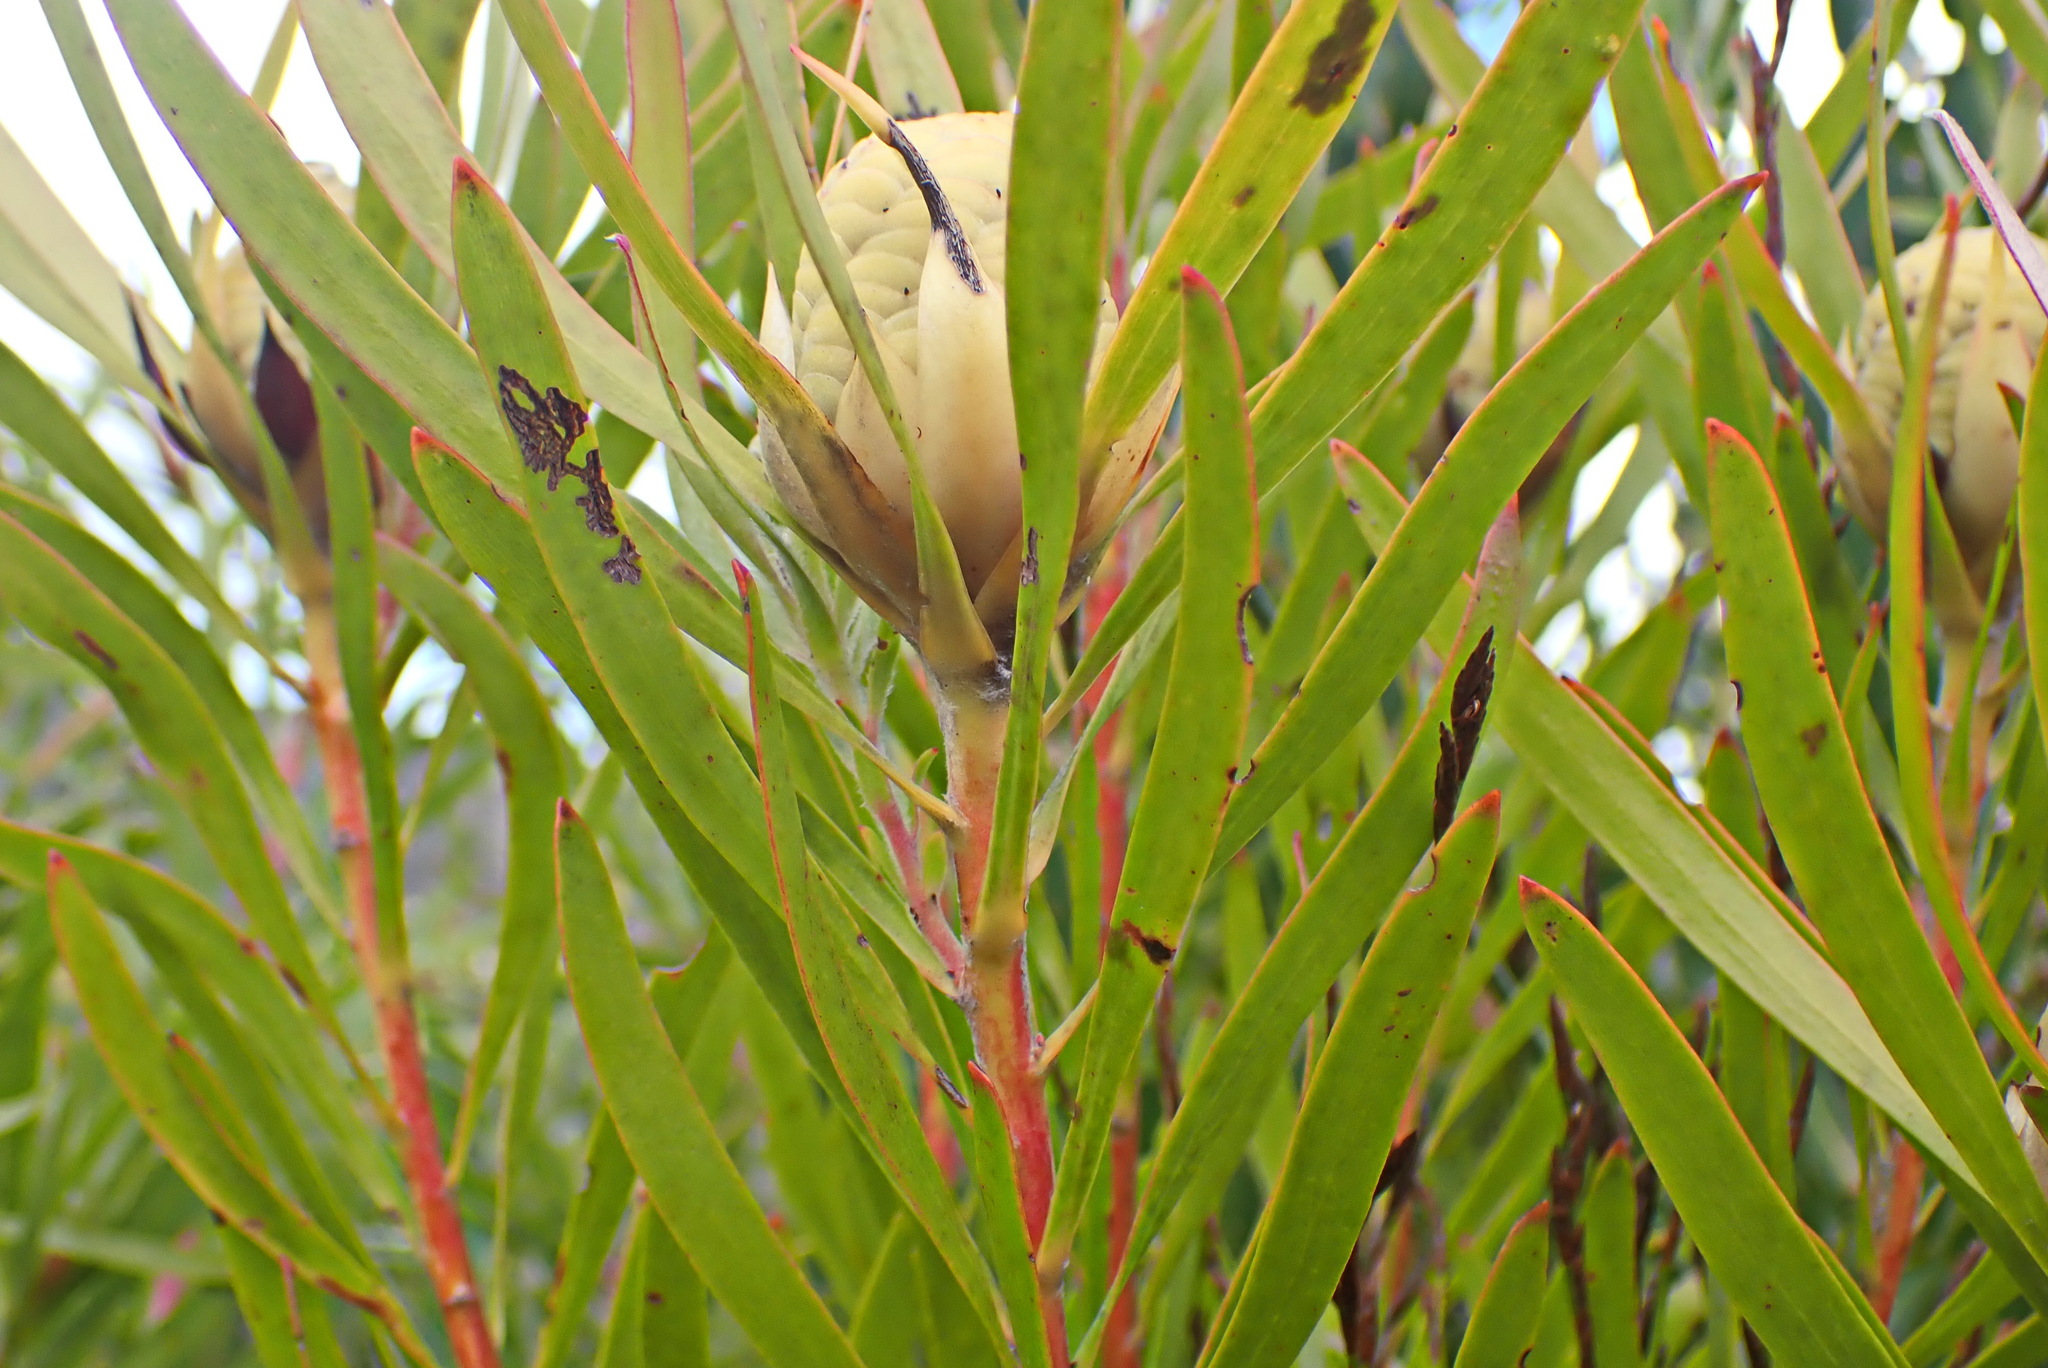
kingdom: Plantae
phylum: Tracheophyta
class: Magnoliopsida
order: Proteales
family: Proteaceae
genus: Leucadendron
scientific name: Leucadendron eucalyptifolium
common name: Gum-leaved conebush
